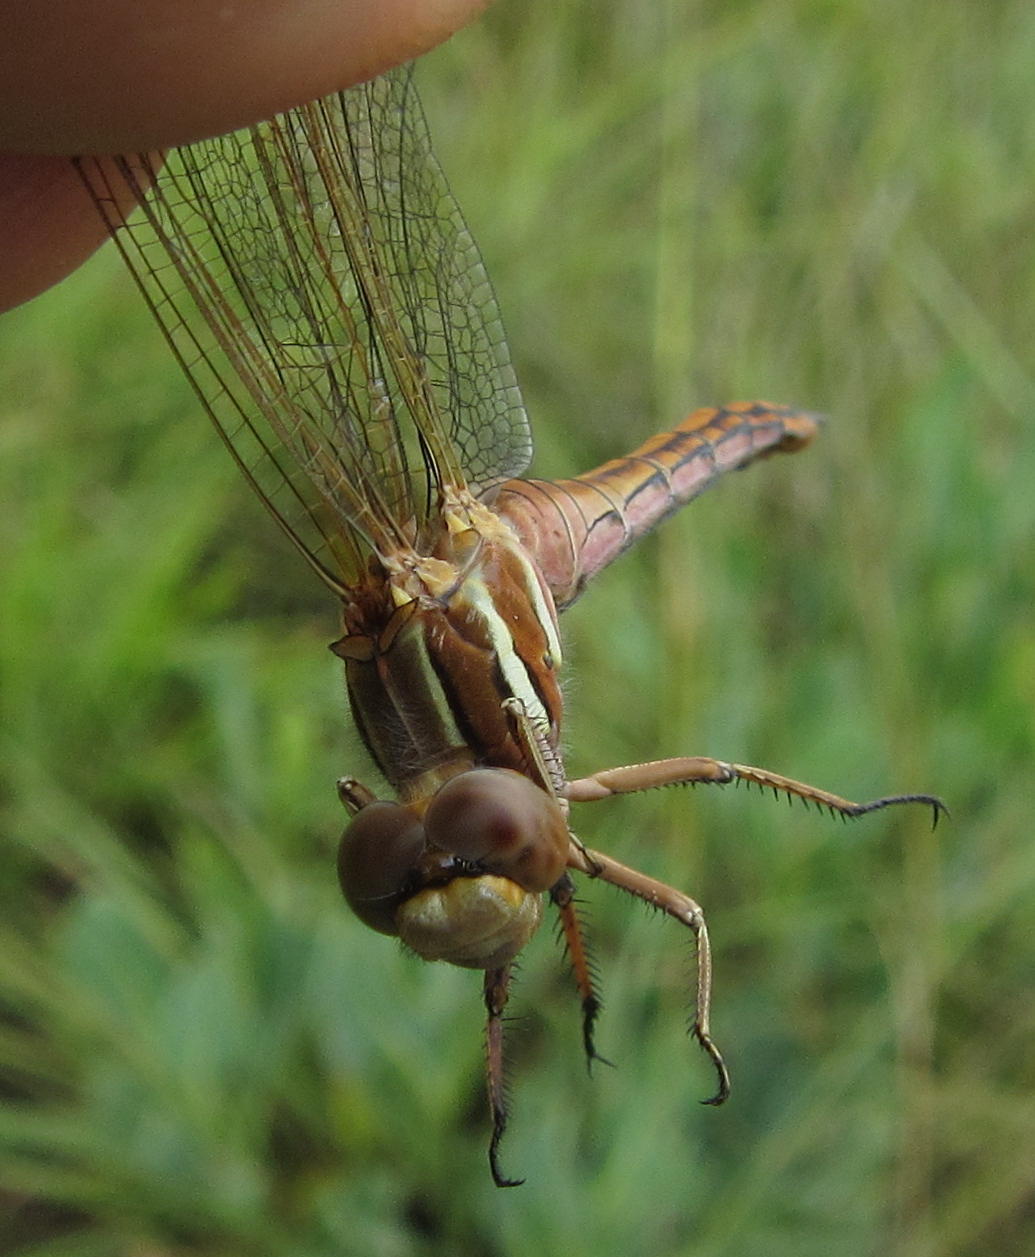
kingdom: Animalia
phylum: Arthropoda
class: Insecta
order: Odonata
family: Libellulidae
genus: Orthetrum
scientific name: Orthetrum caffrum
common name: Two-striped skimmer
